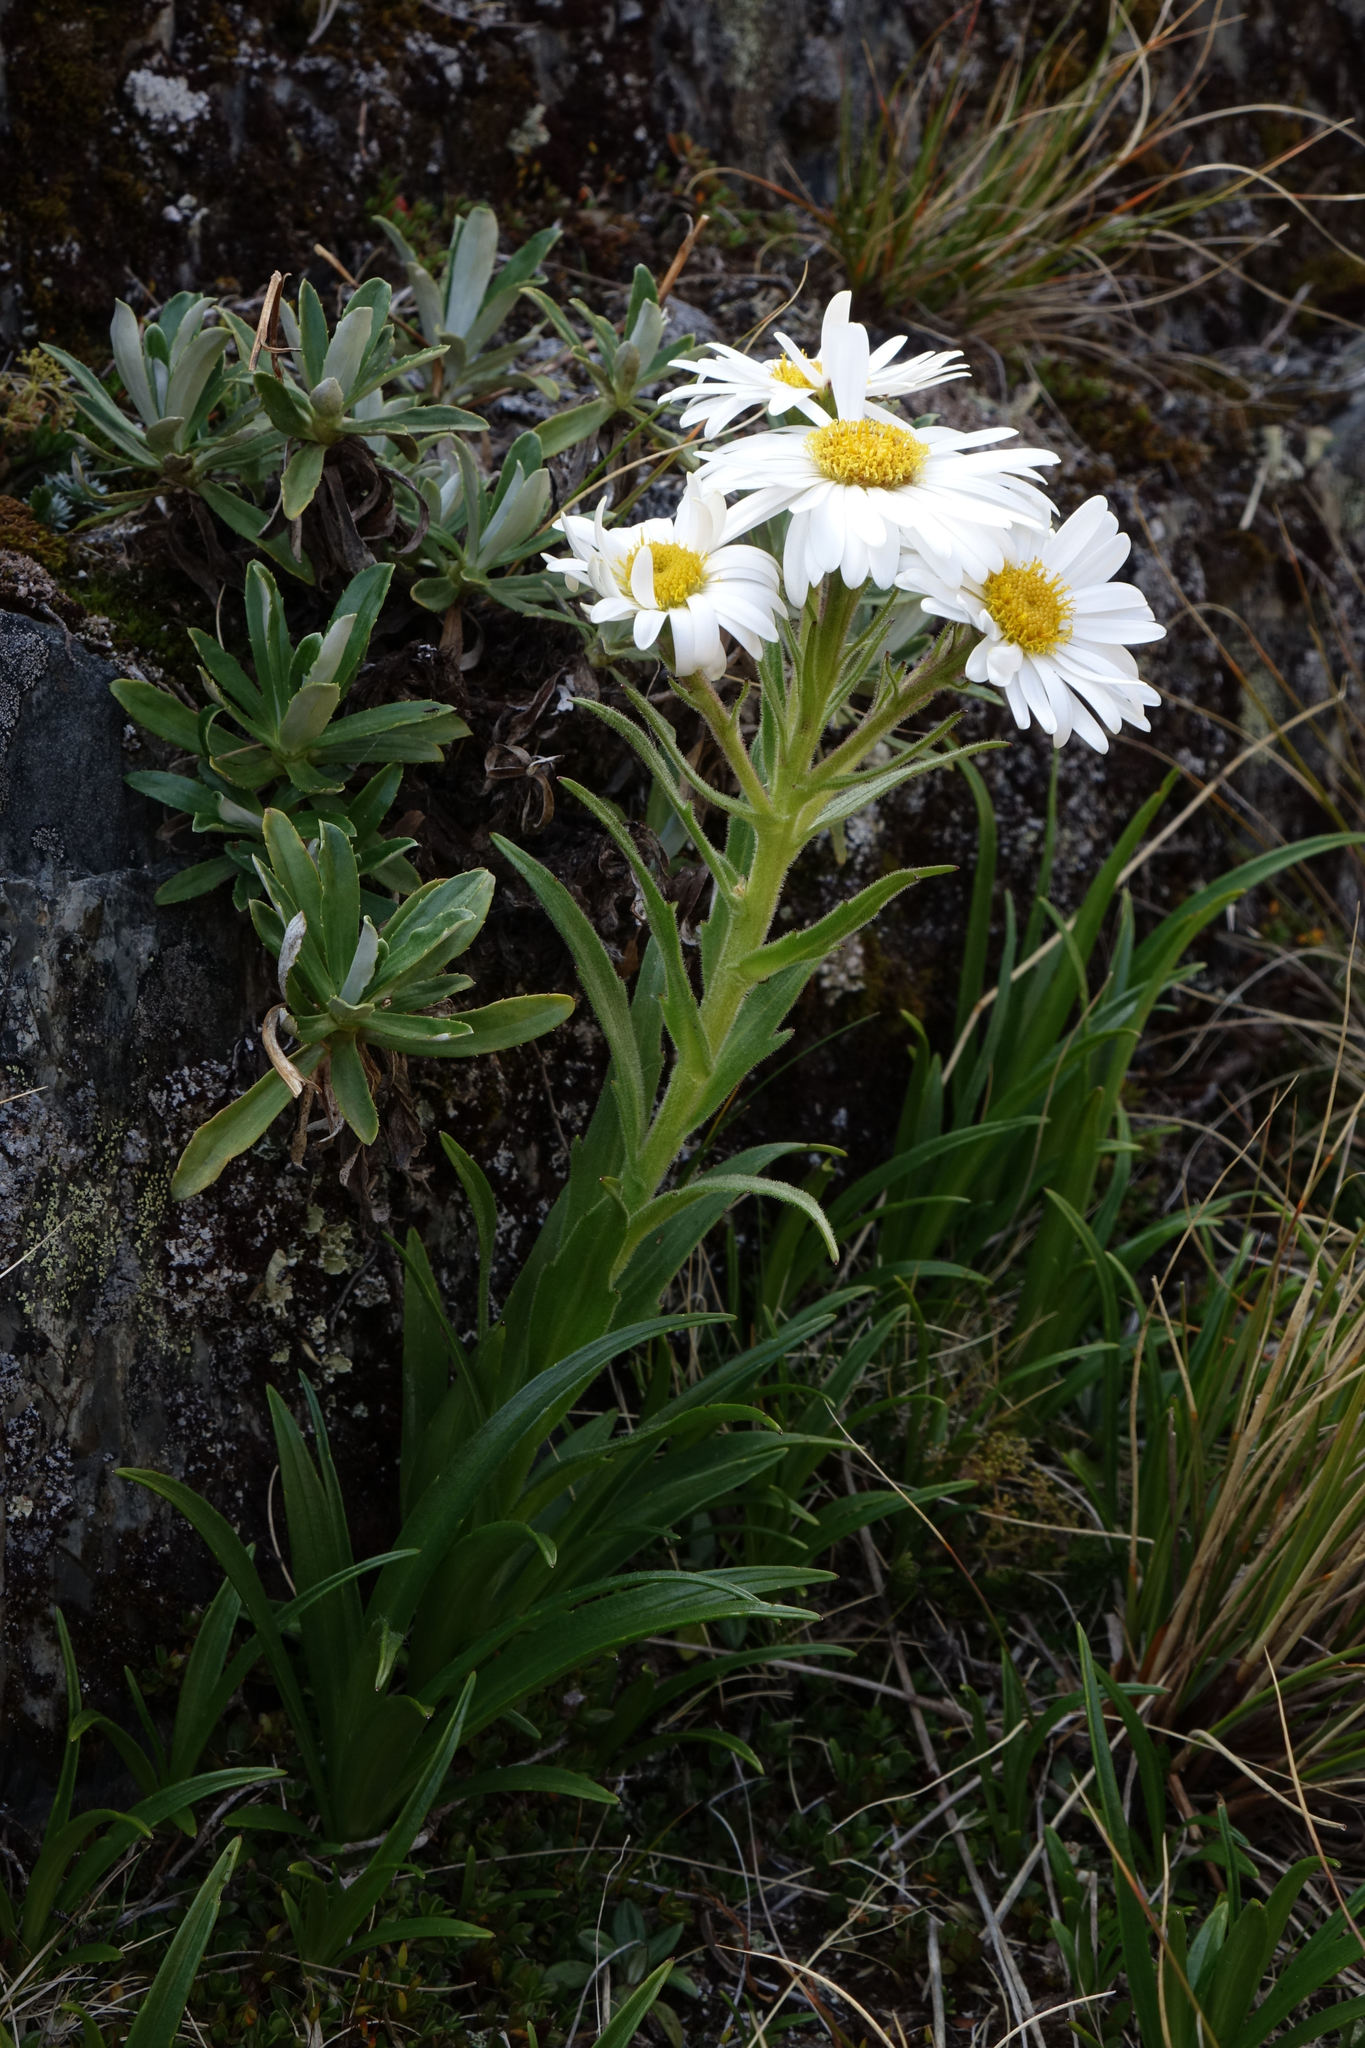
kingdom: Plantae
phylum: Tracheophyta
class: Magnoliopsida
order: Asterales
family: Asteraceae
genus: Dolichoglottis
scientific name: Dolichoglottis scorzoneroides
